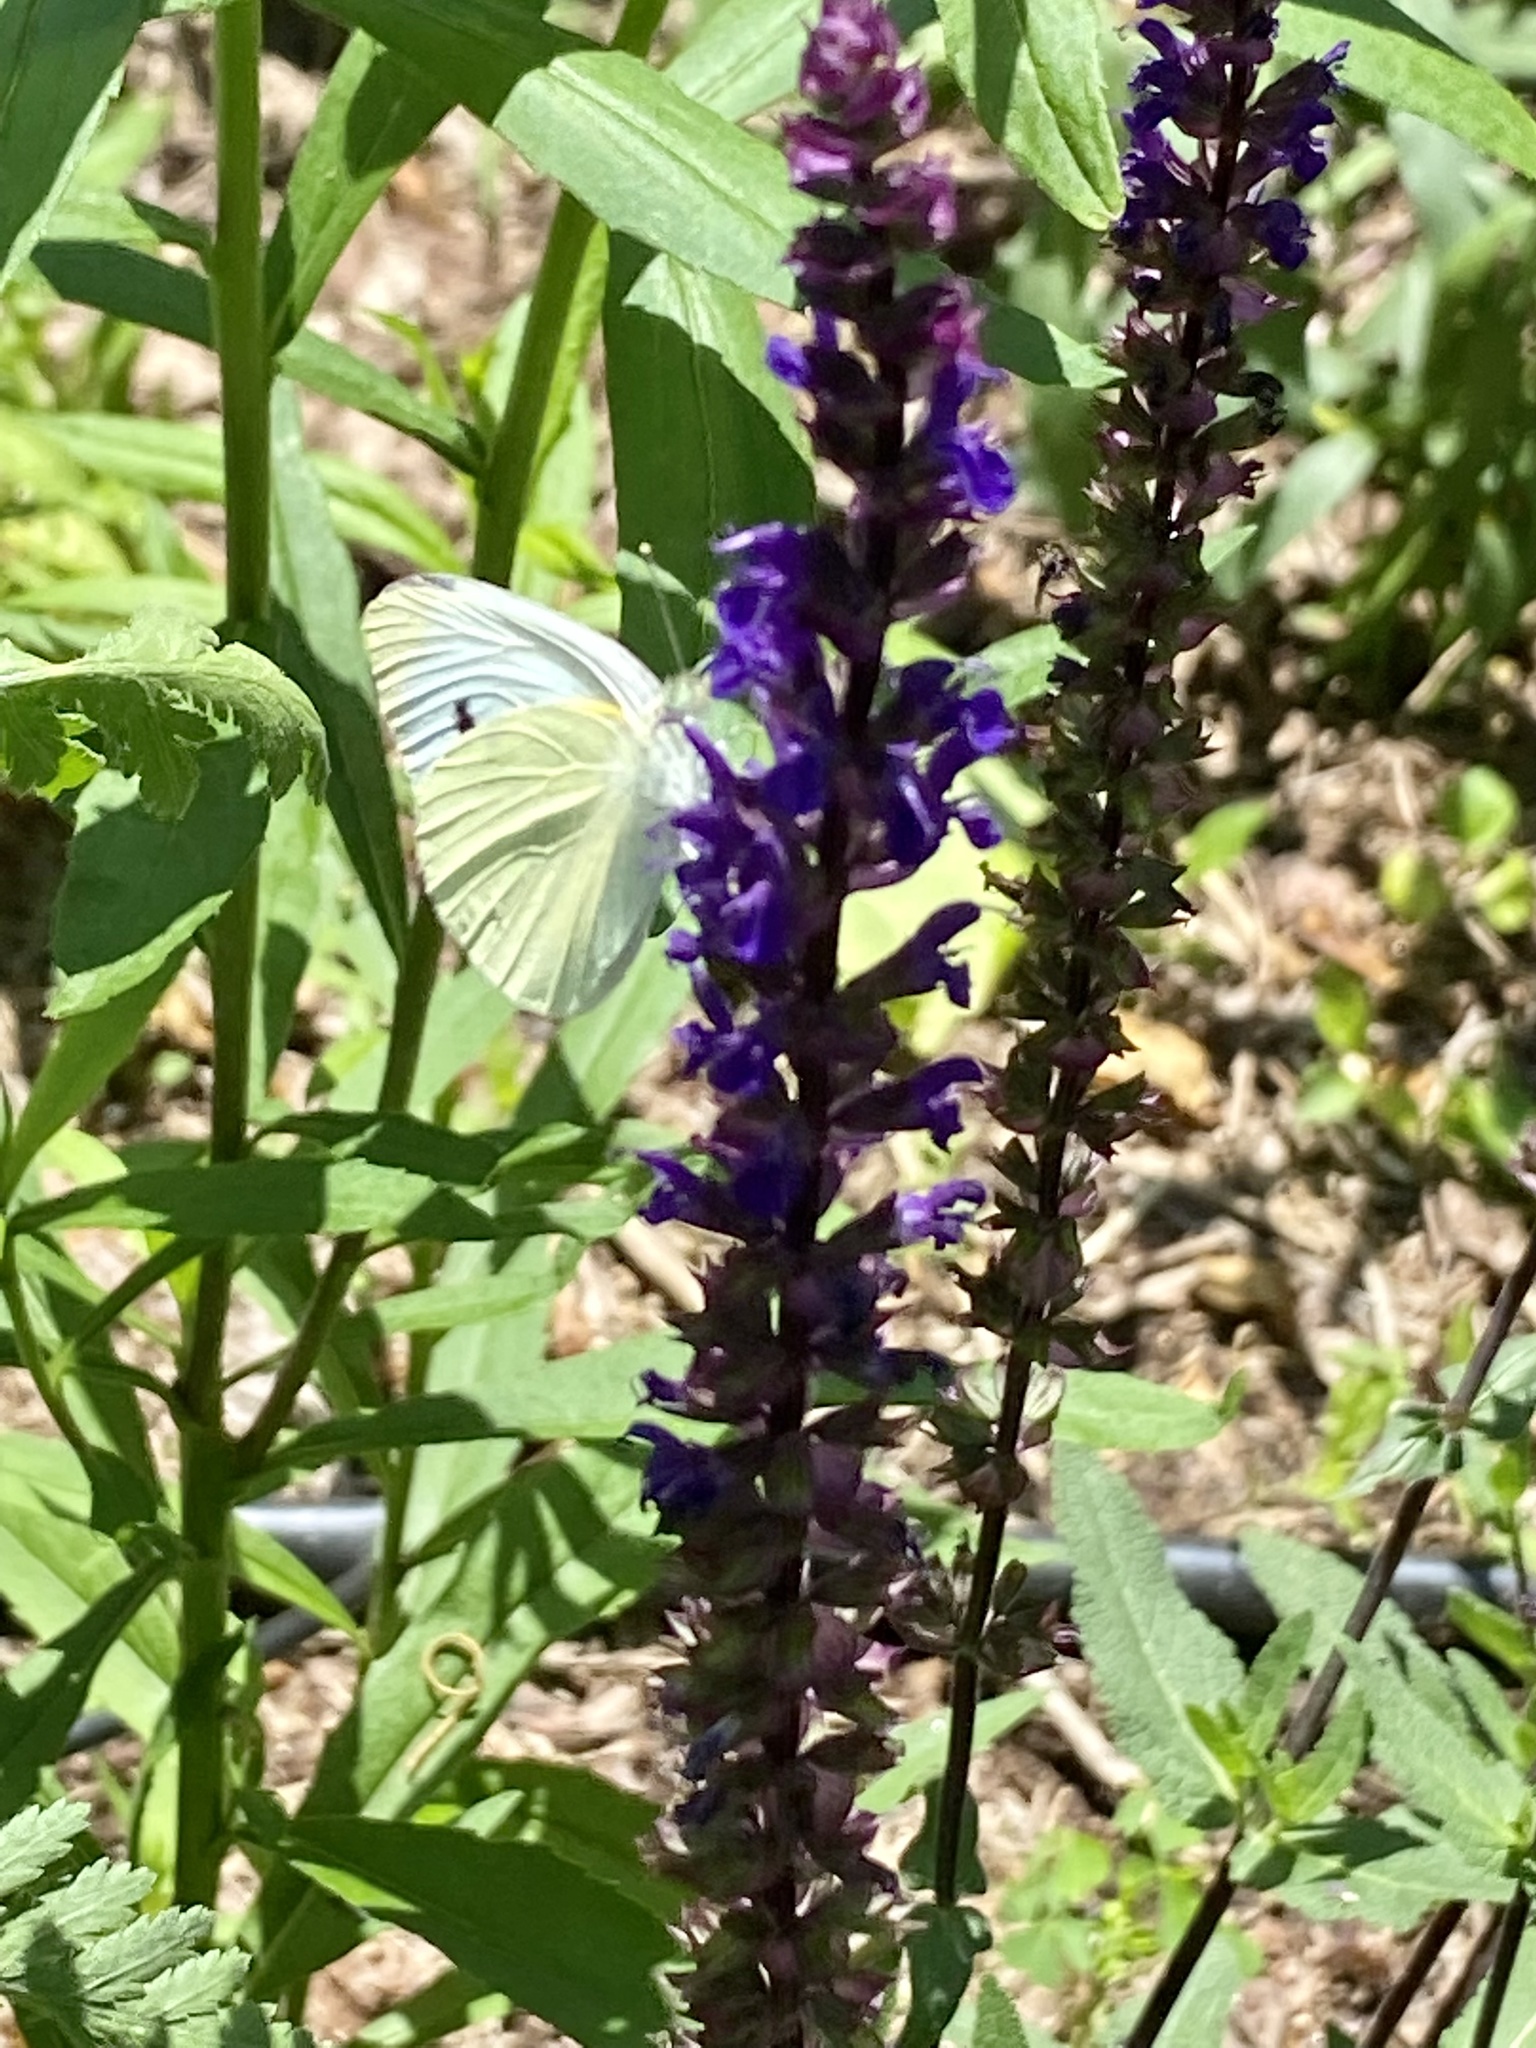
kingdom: Animalia
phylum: Arthropoda
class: Insecta
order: Lepidoptera
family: Pieridae
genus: Pieris
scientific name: Pieris rapae
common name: Small white
